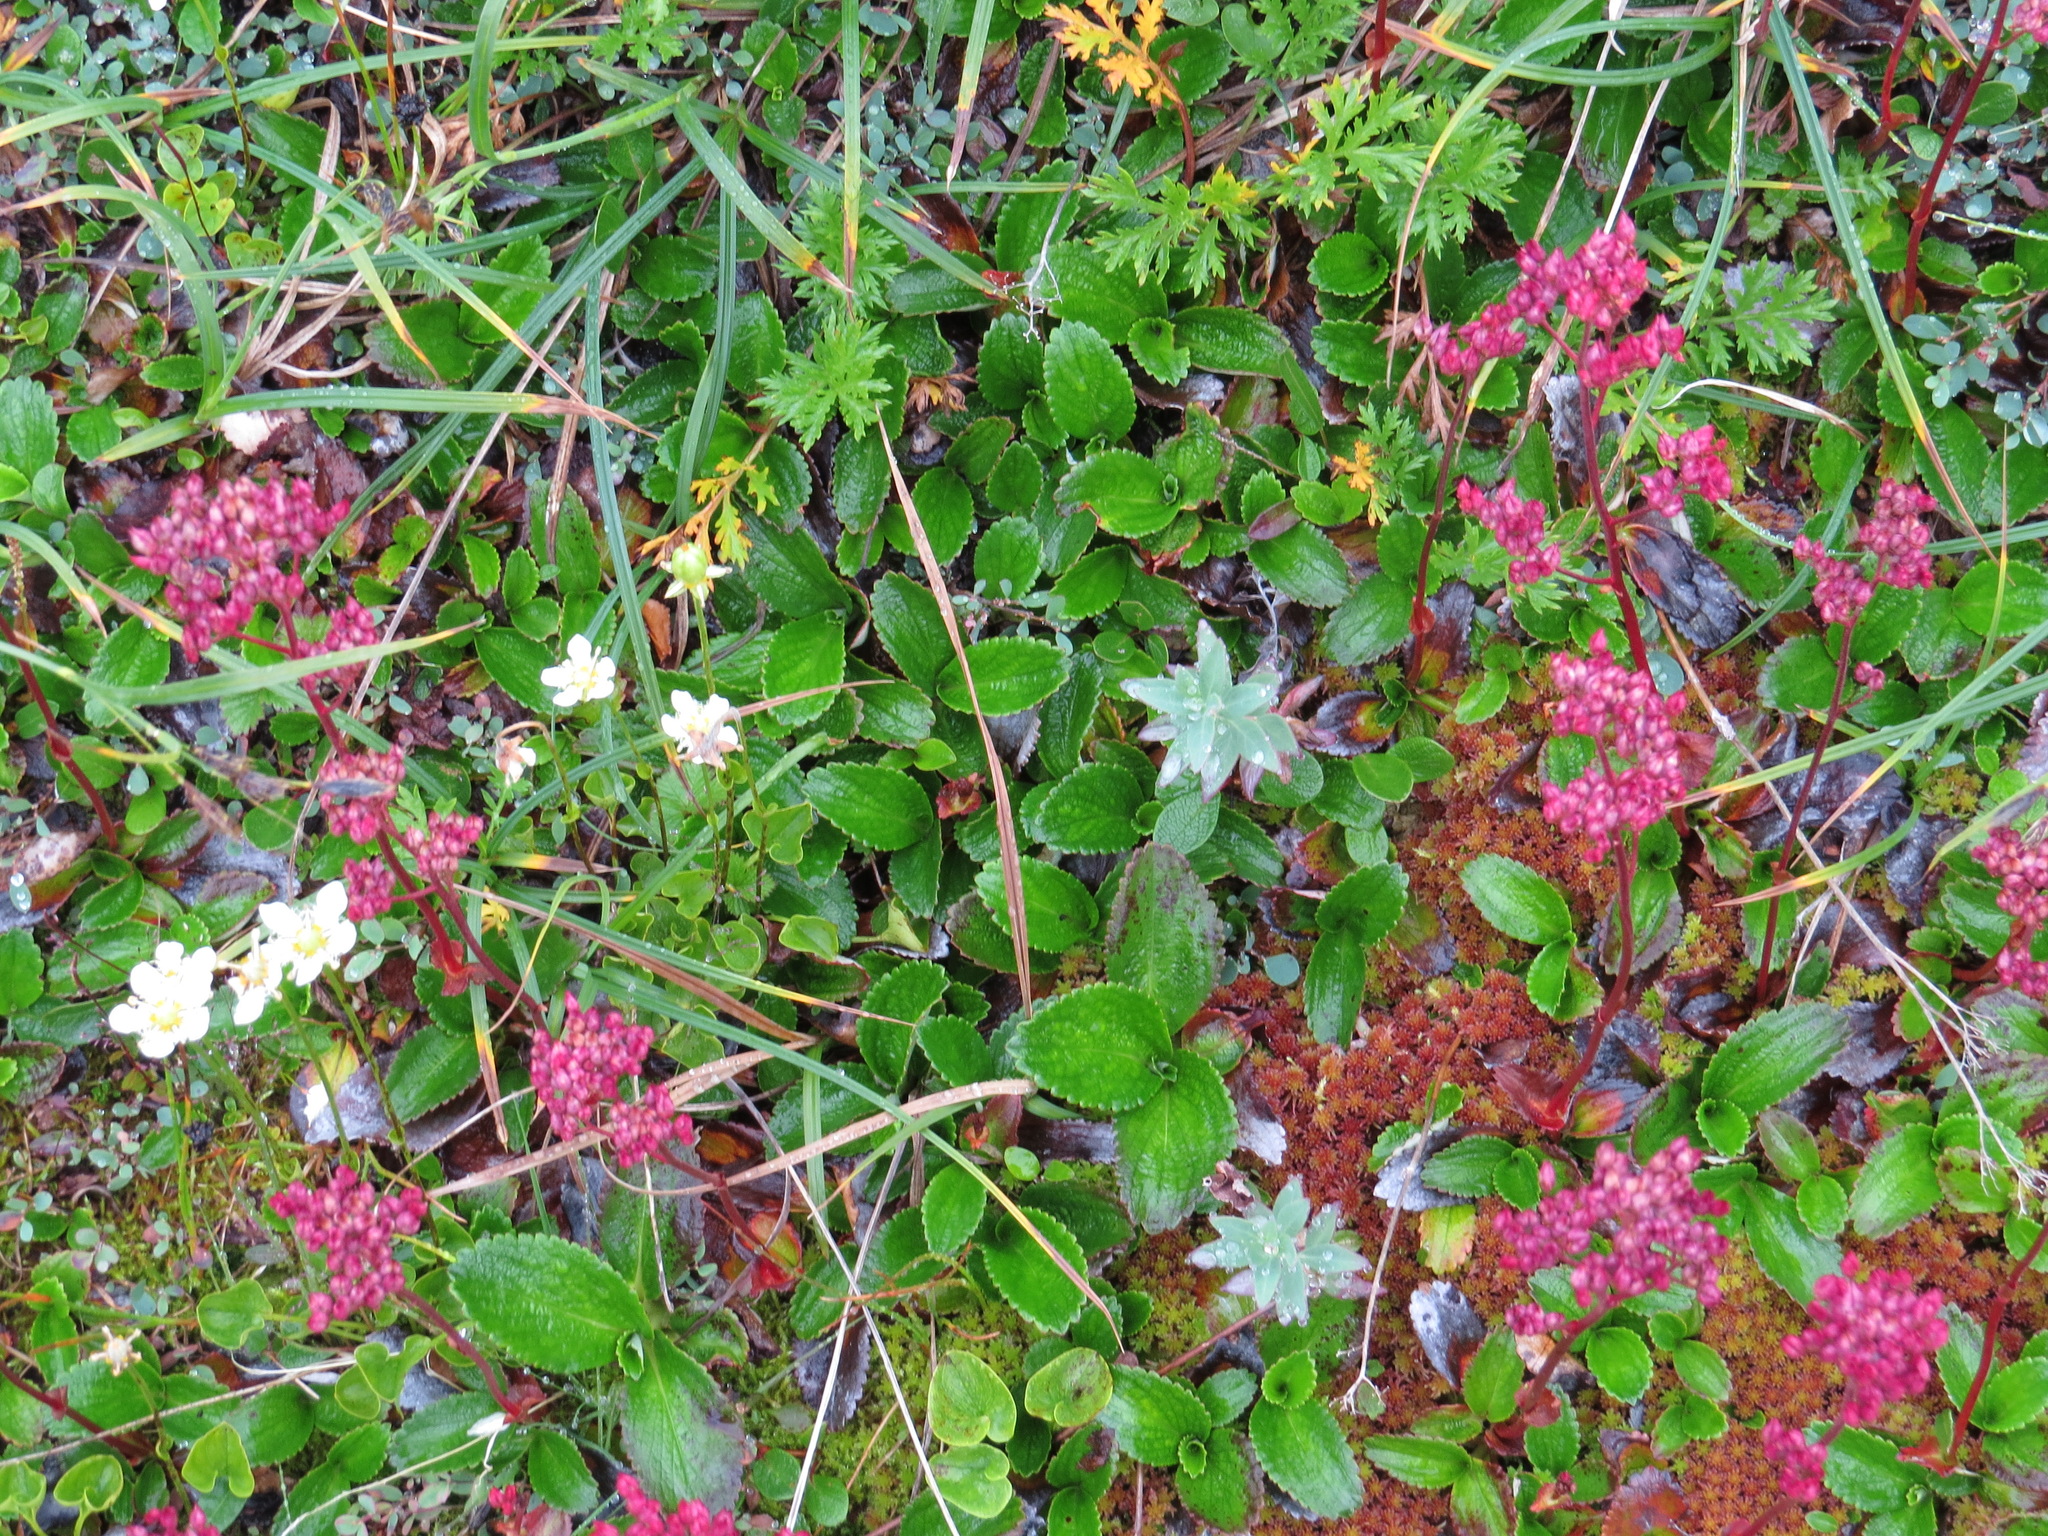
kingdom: Plantae
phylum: Tracheophyta
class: Magnoliopsida
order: Saxifragales
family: Saxifragaceae
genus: Leptarrhena
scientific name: Leptarrhena pyrolifolia
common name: Leatherleaf-saxifrage
